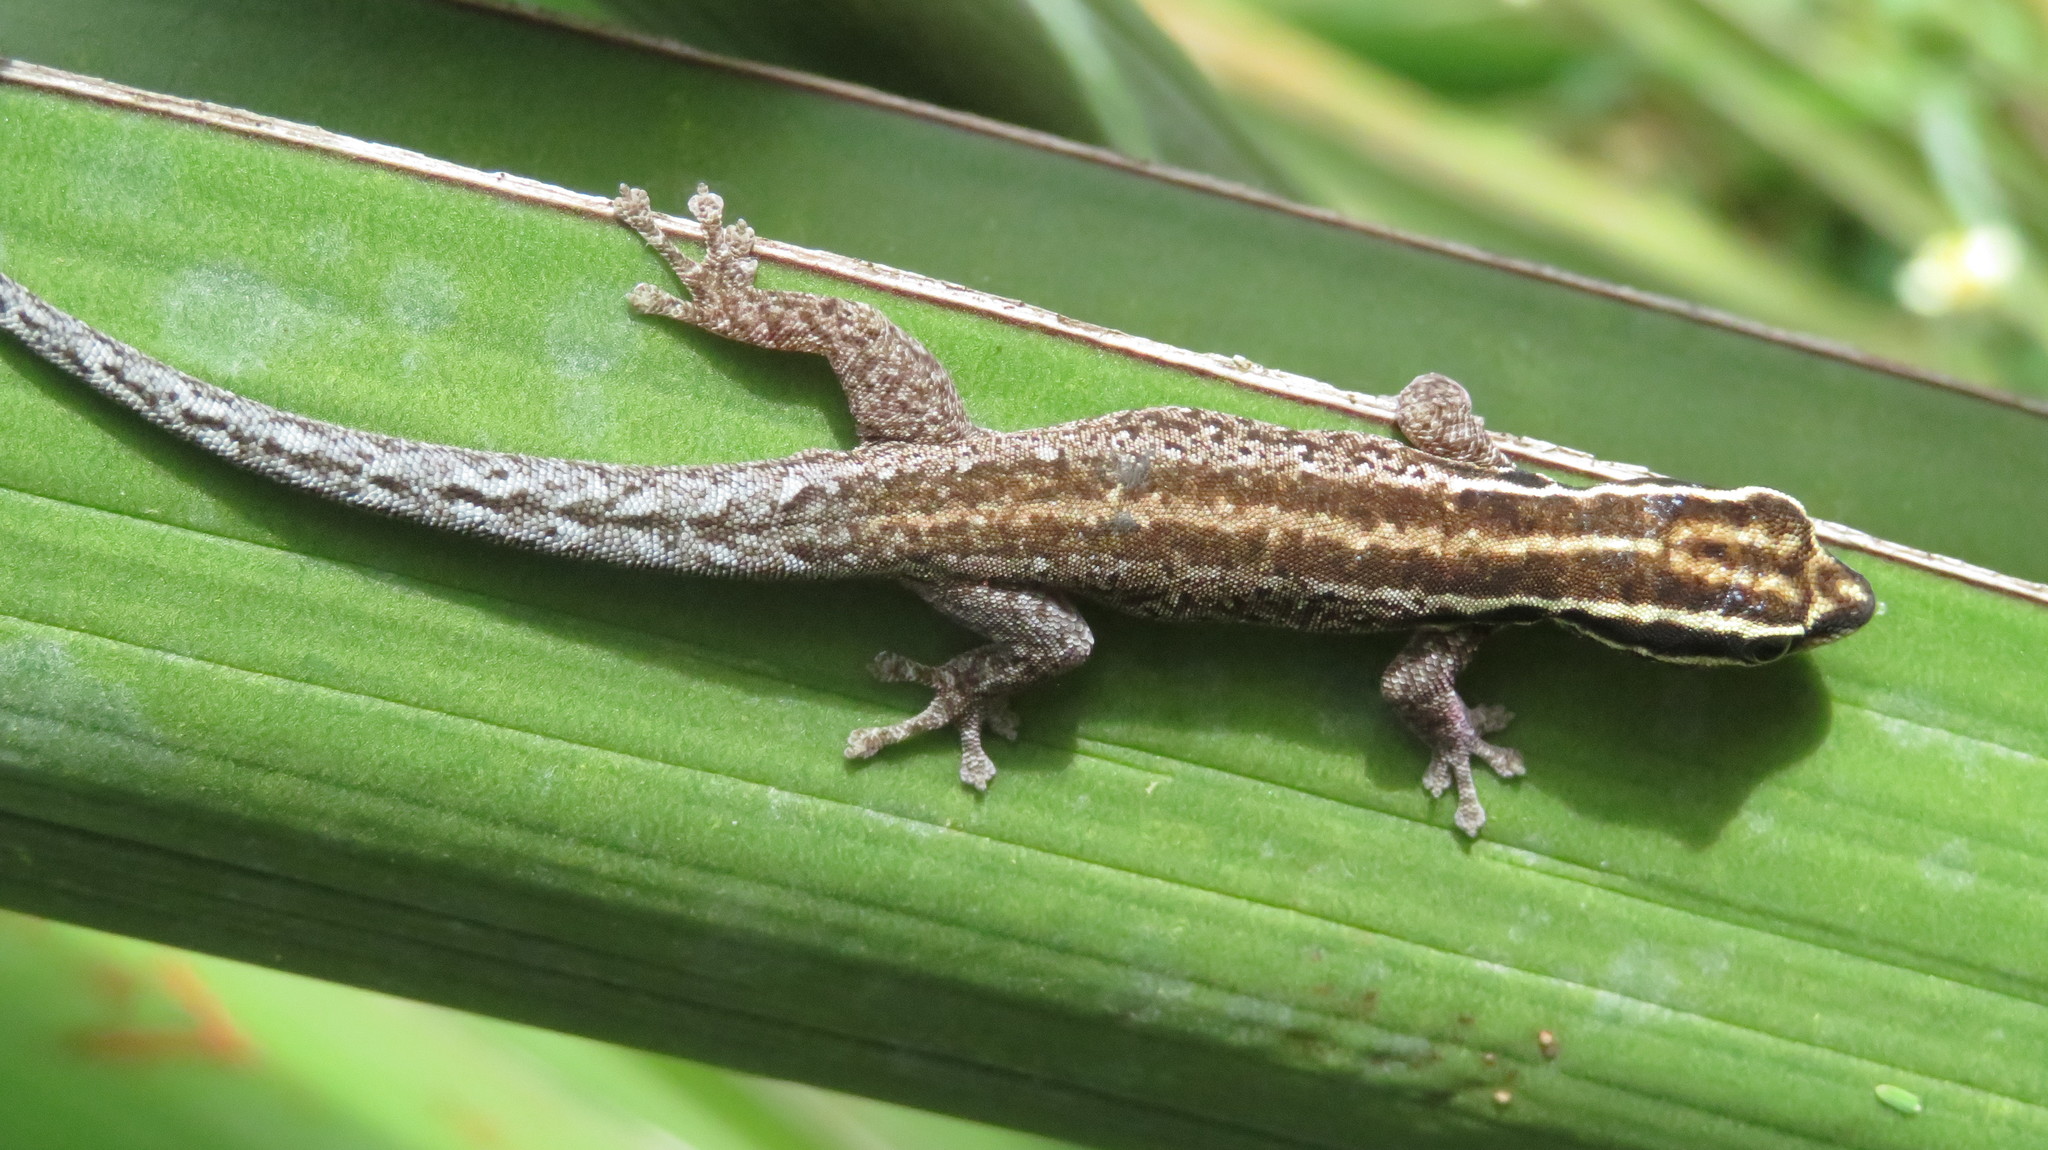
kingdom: Animalia
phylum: Chordata
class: Squamata
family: Gekkonidae
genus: Lygodactylus
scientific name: Lygodactylus tsavoensis
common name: Tsavo dwarf gecko
